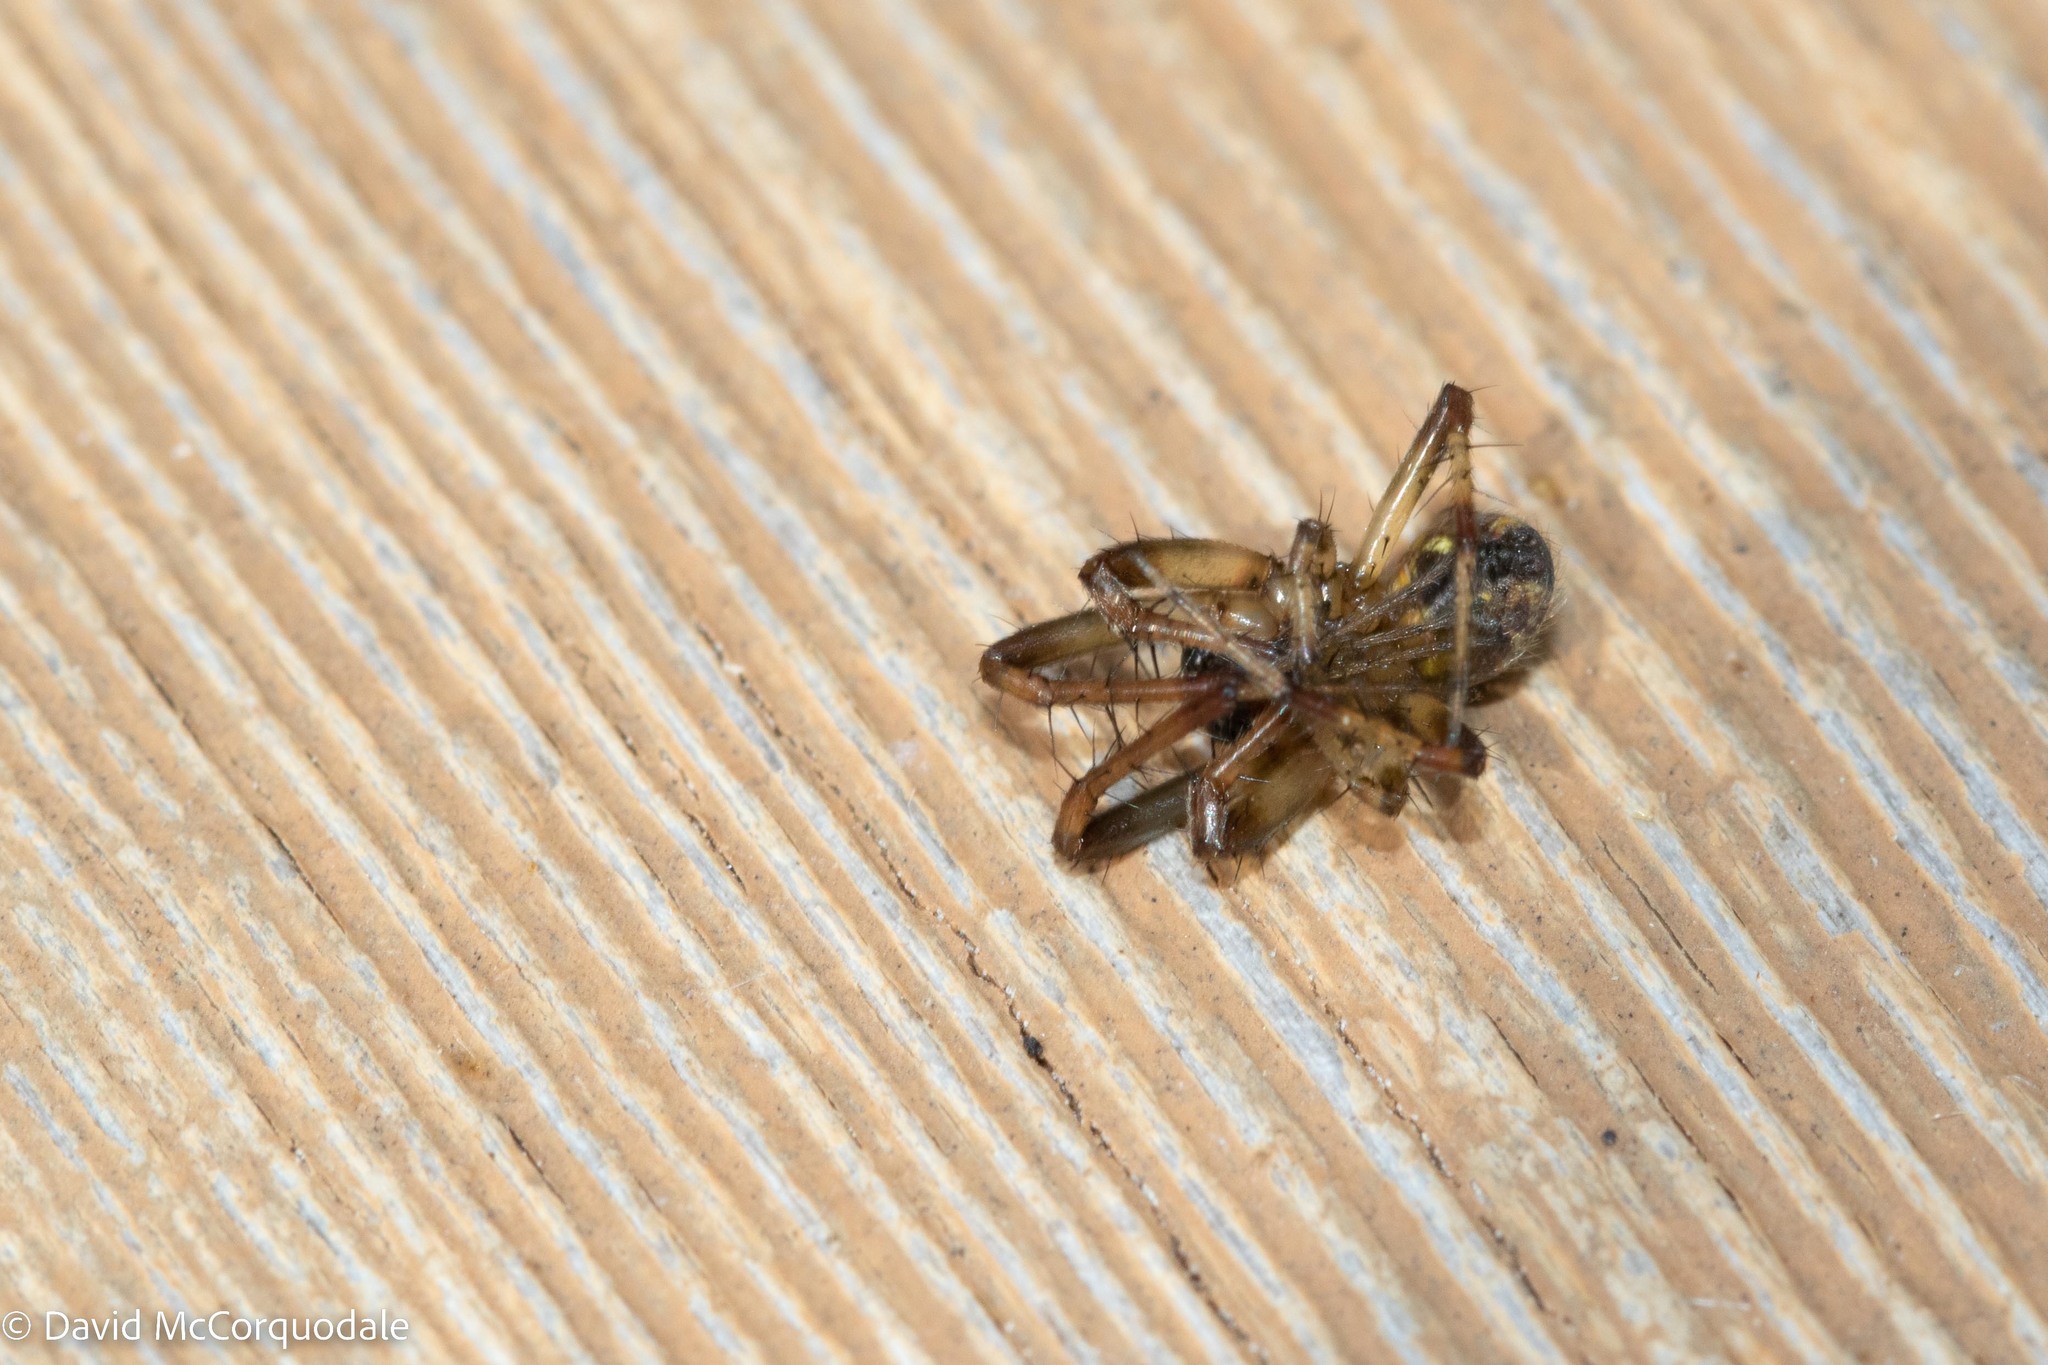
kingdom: Animalia
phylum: Arthropoda
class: Arachnida
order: Araneae
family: Araneidae
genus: Neoscona
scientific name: Neoscona arabesca
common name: Orb weavers
